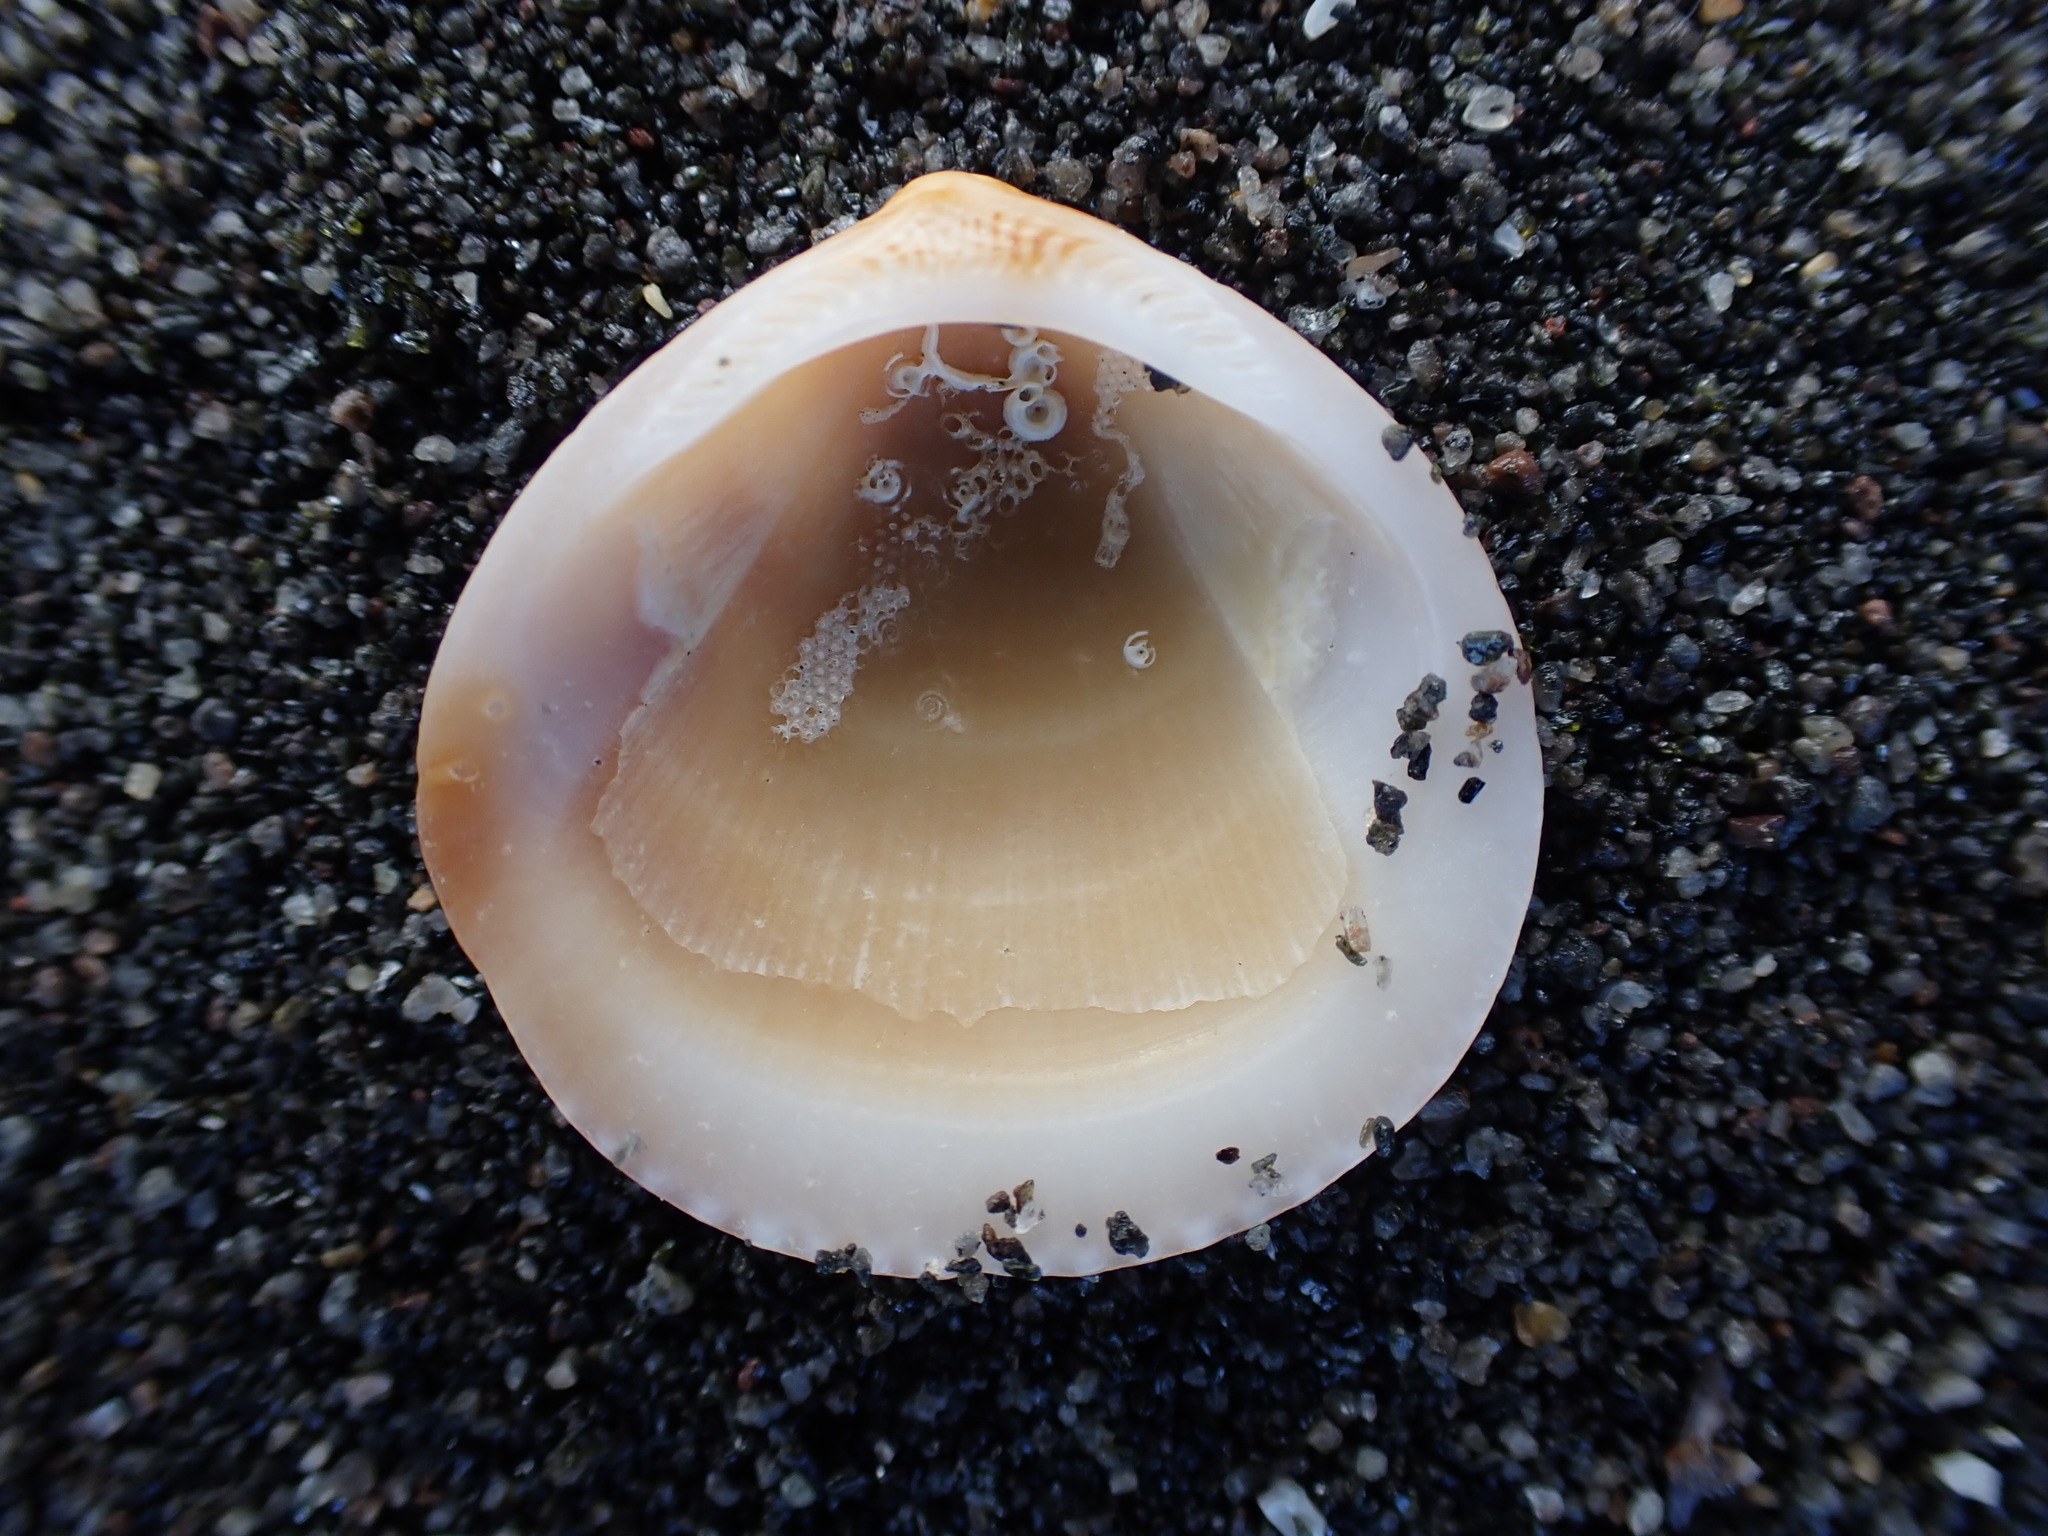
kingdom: Animalia
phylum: Mollusca
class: Bivalvia
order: Arcida
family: Glycymerididae
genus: Glycymeris
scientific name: Glycymeris modesta
